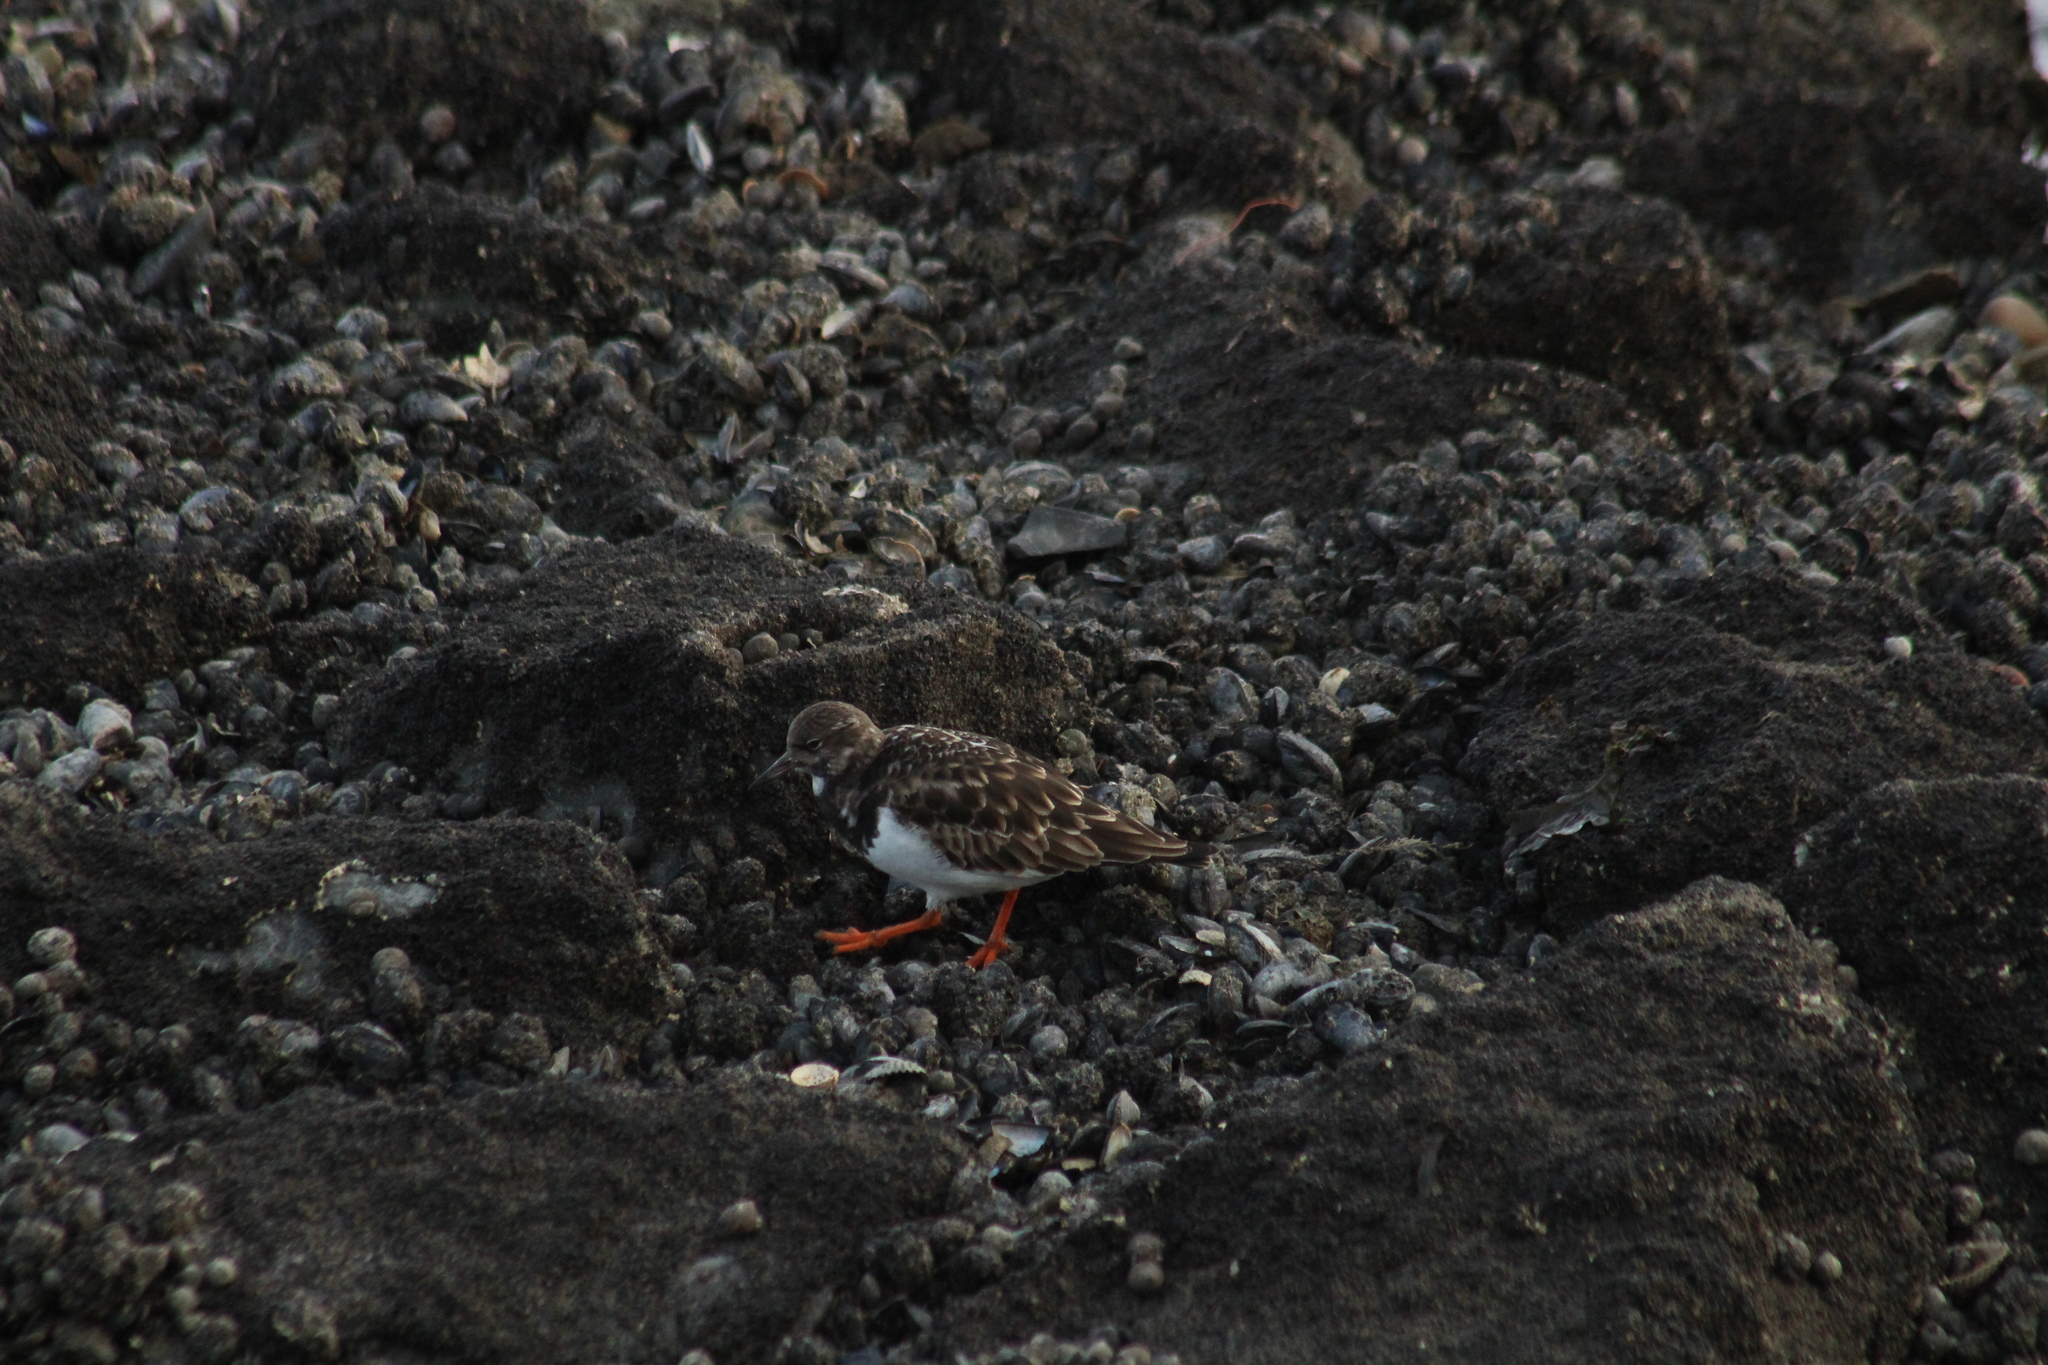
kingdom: Animalia
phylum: Chordata
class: Aves
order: Charadriiformes
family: Scolopacidae
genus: Arenaria
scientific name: Arenaria interpres
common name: Ruddy turnstone
